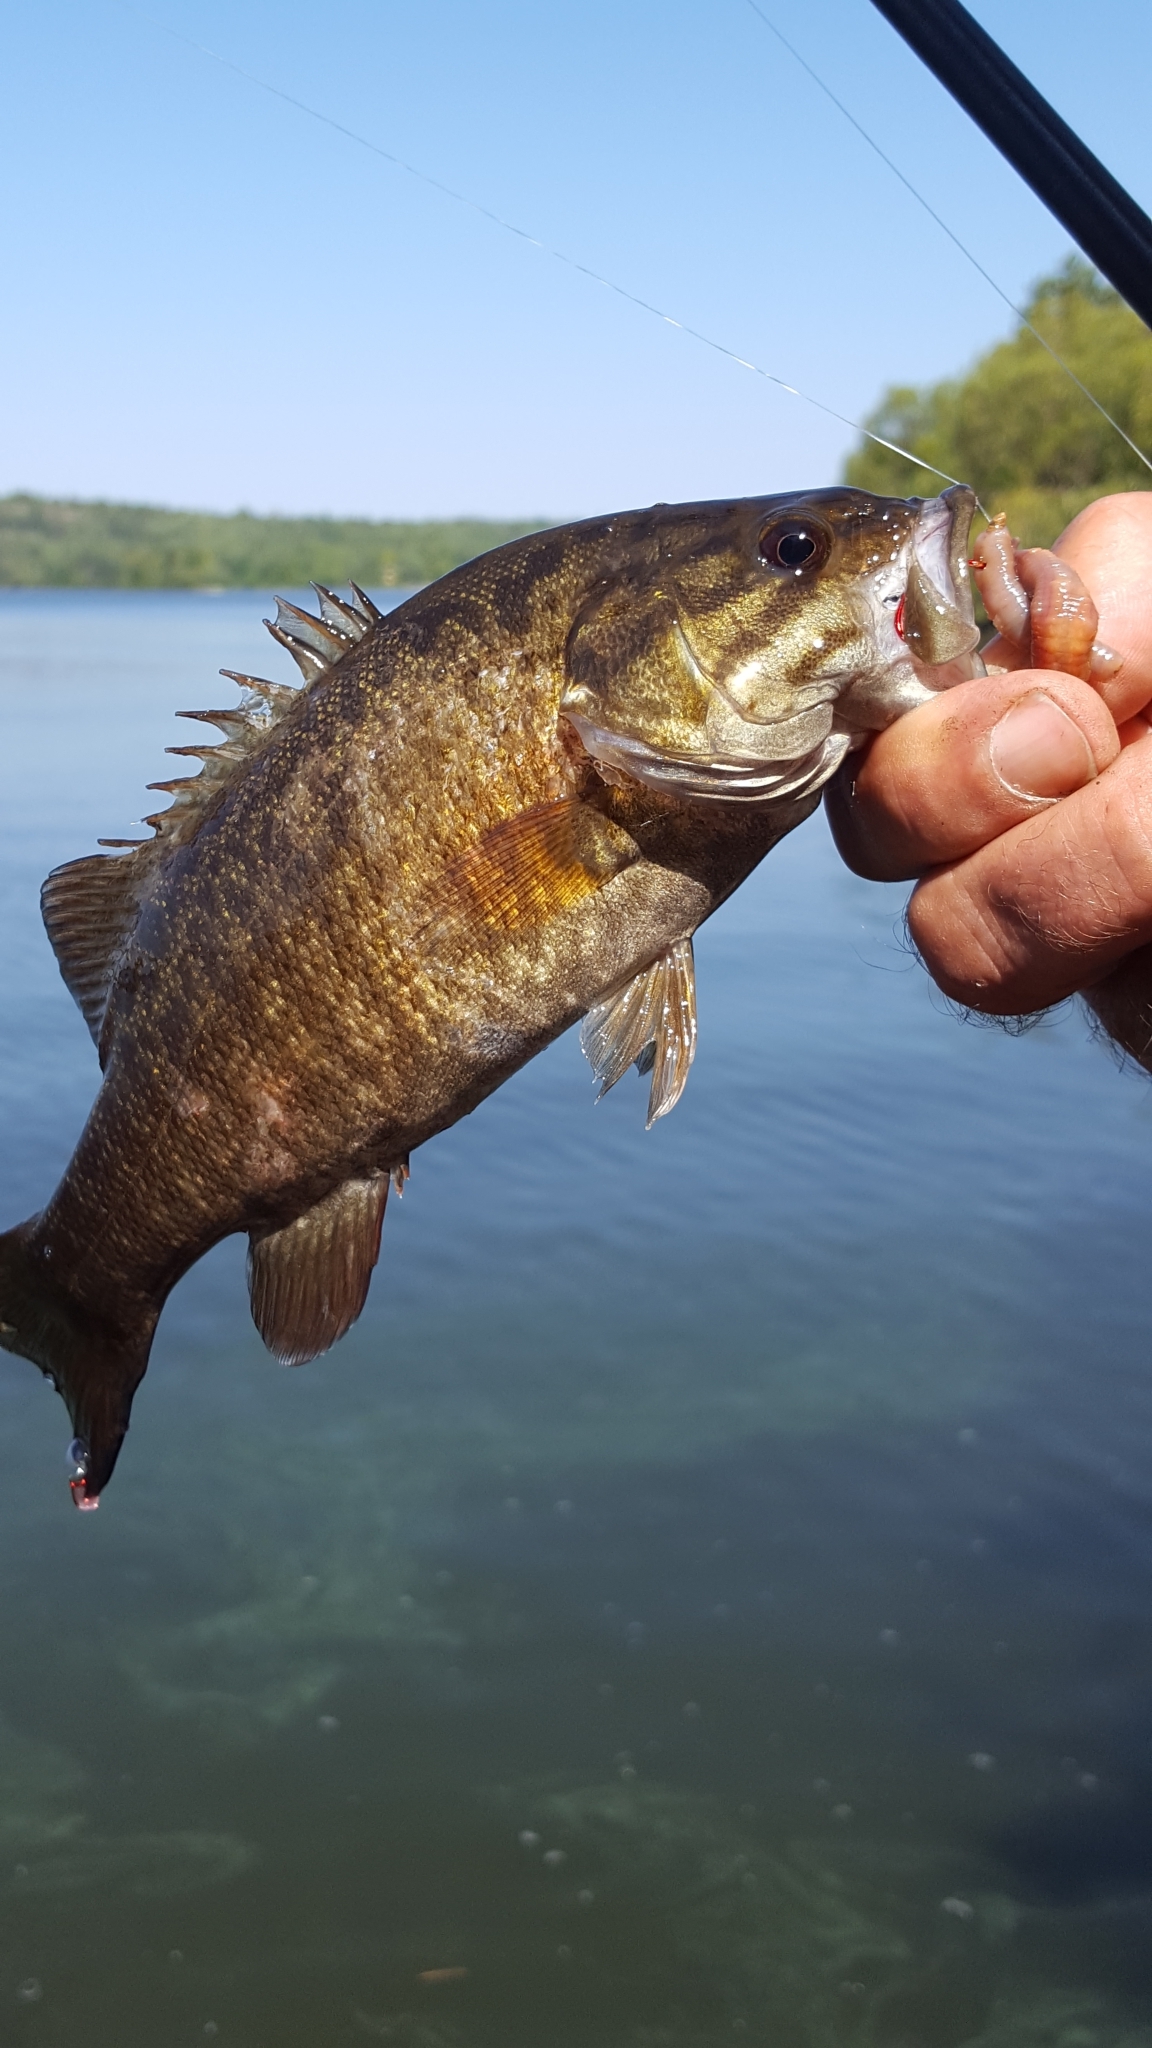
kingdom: Animalia
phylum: Chordata
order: Perciformes
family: Centrarchidae
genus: Micropterus
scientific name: Micropterus dolomieu
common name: Smallmouth bass
